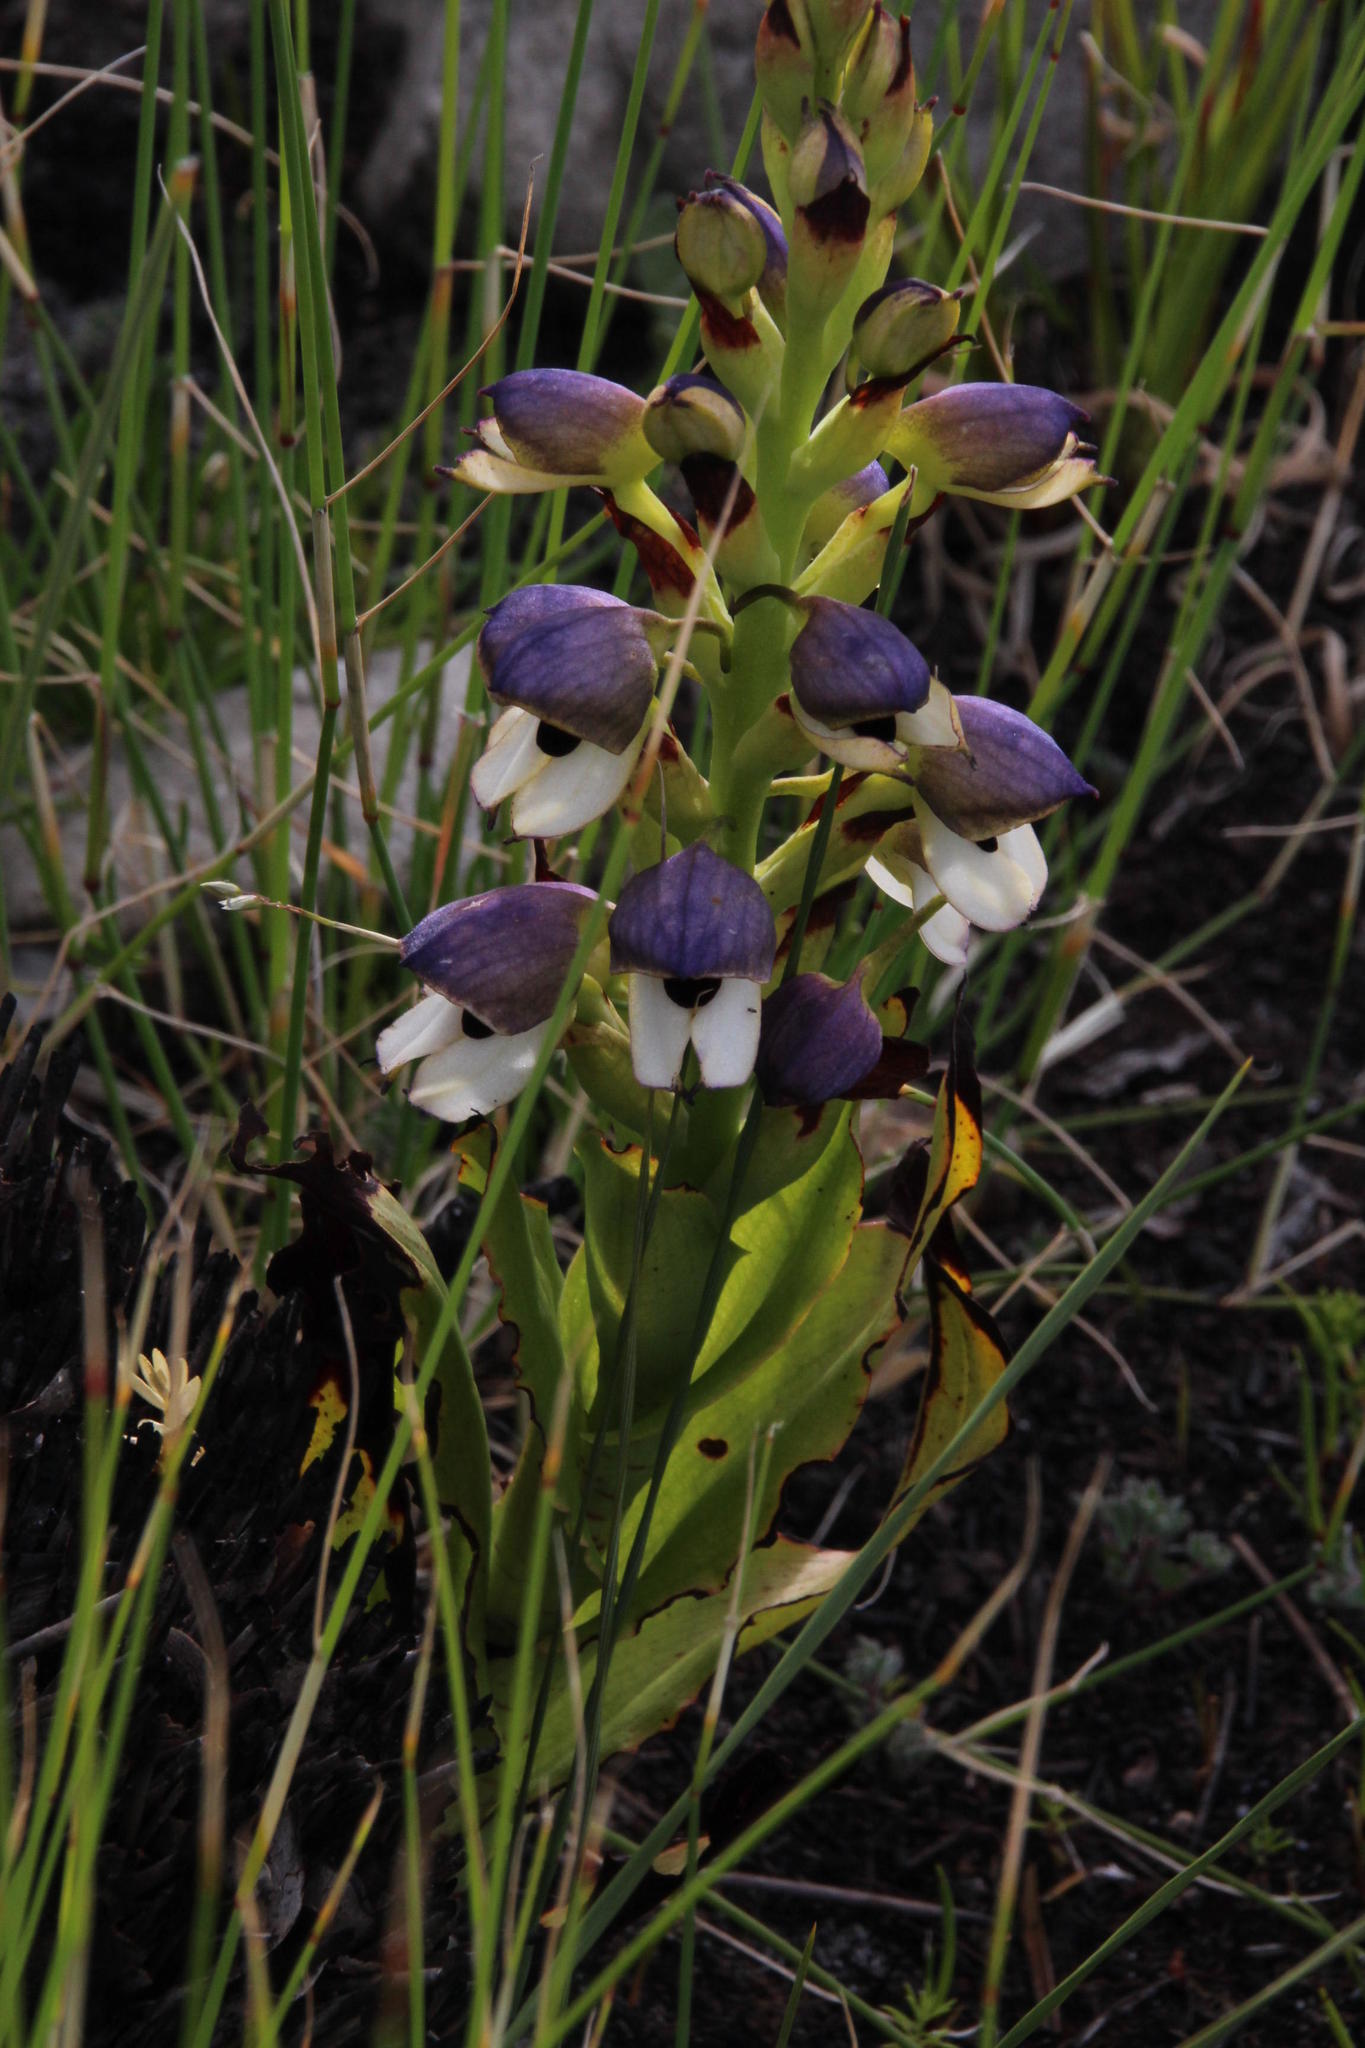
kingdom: Plantae
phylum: Tracheophyta
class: Liliopsida
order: Asparagales
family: Orchidaceae
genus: Disa
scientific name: Disa cornuta
